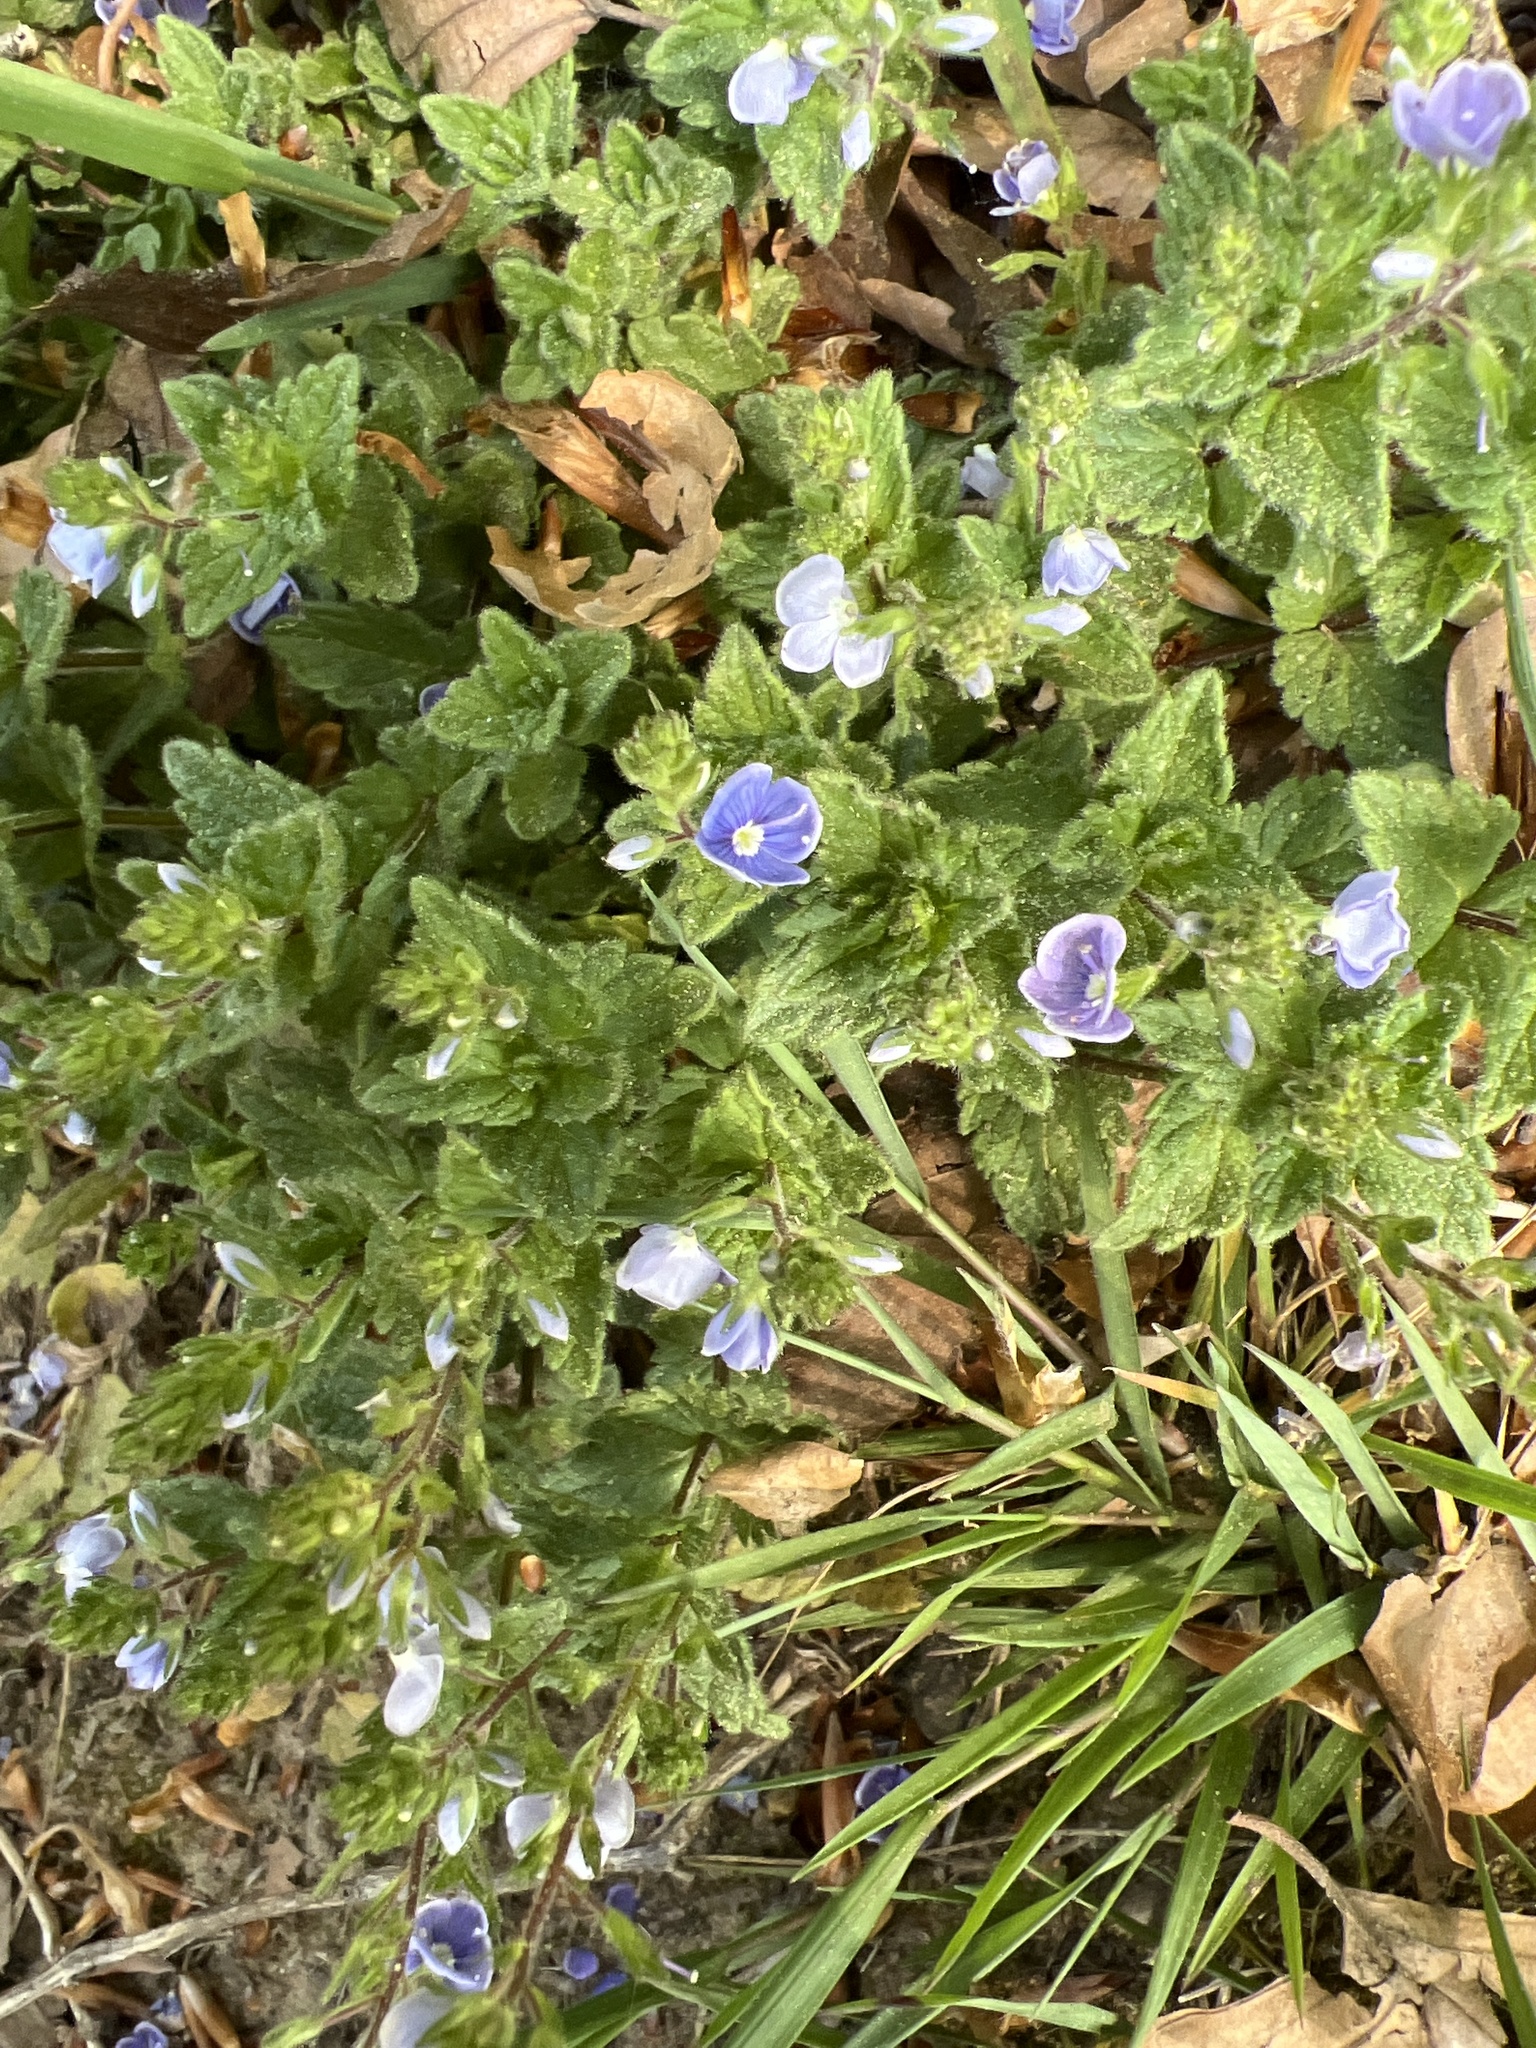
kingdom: Plantae
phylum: Tracheophyta
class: Magnoliopsida
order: Lamiales
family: Plantaginaceae
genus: Veronica
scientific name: Veronica chamaedrys
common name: Germander speedwell
